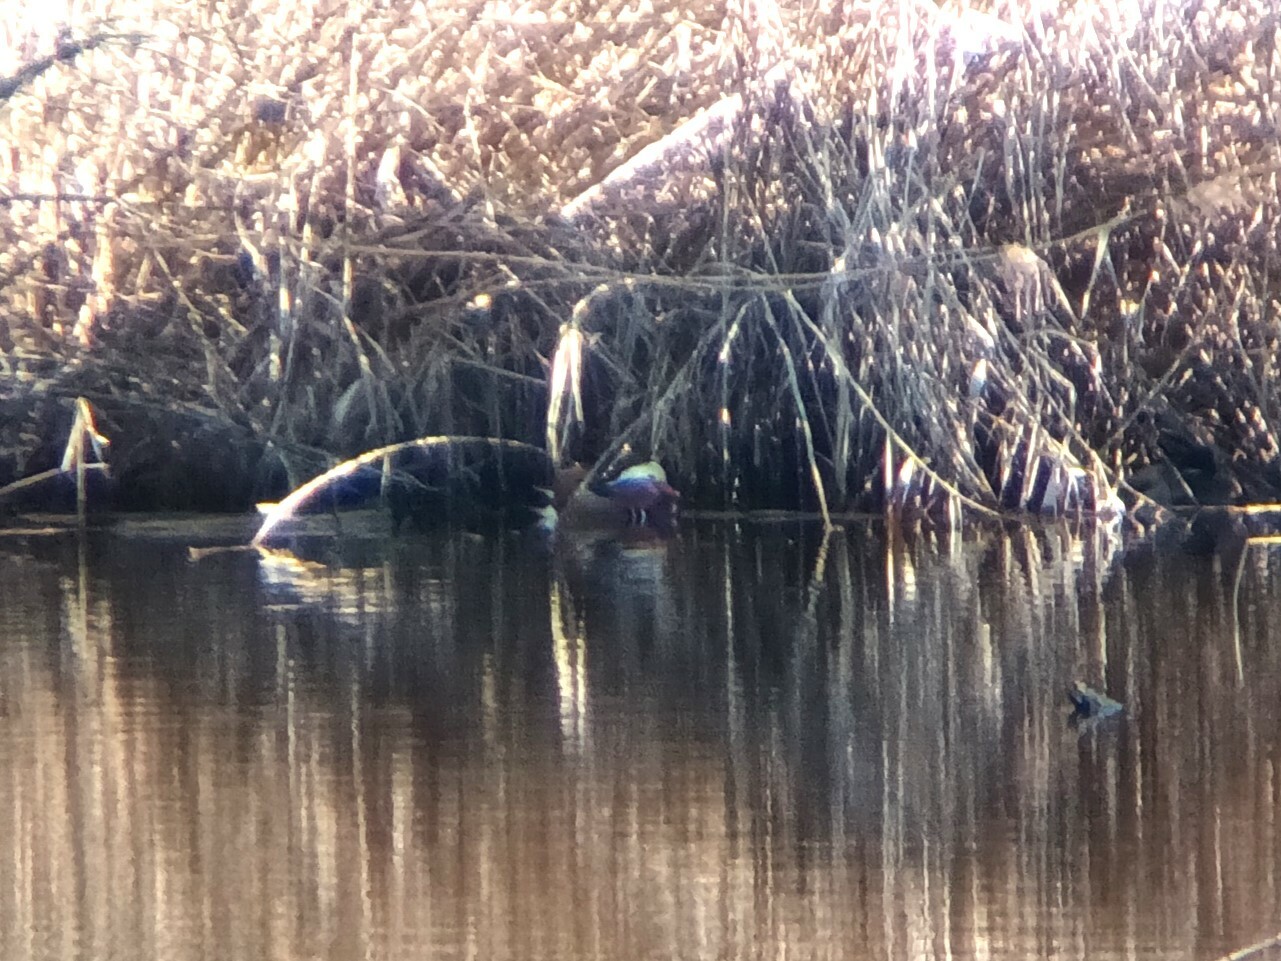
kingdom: Animalia
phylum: Chordata
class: Aves
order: Anseriformes
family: Anatidae
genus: Aix
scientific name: Aix galericulata
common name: Mandarin duck
